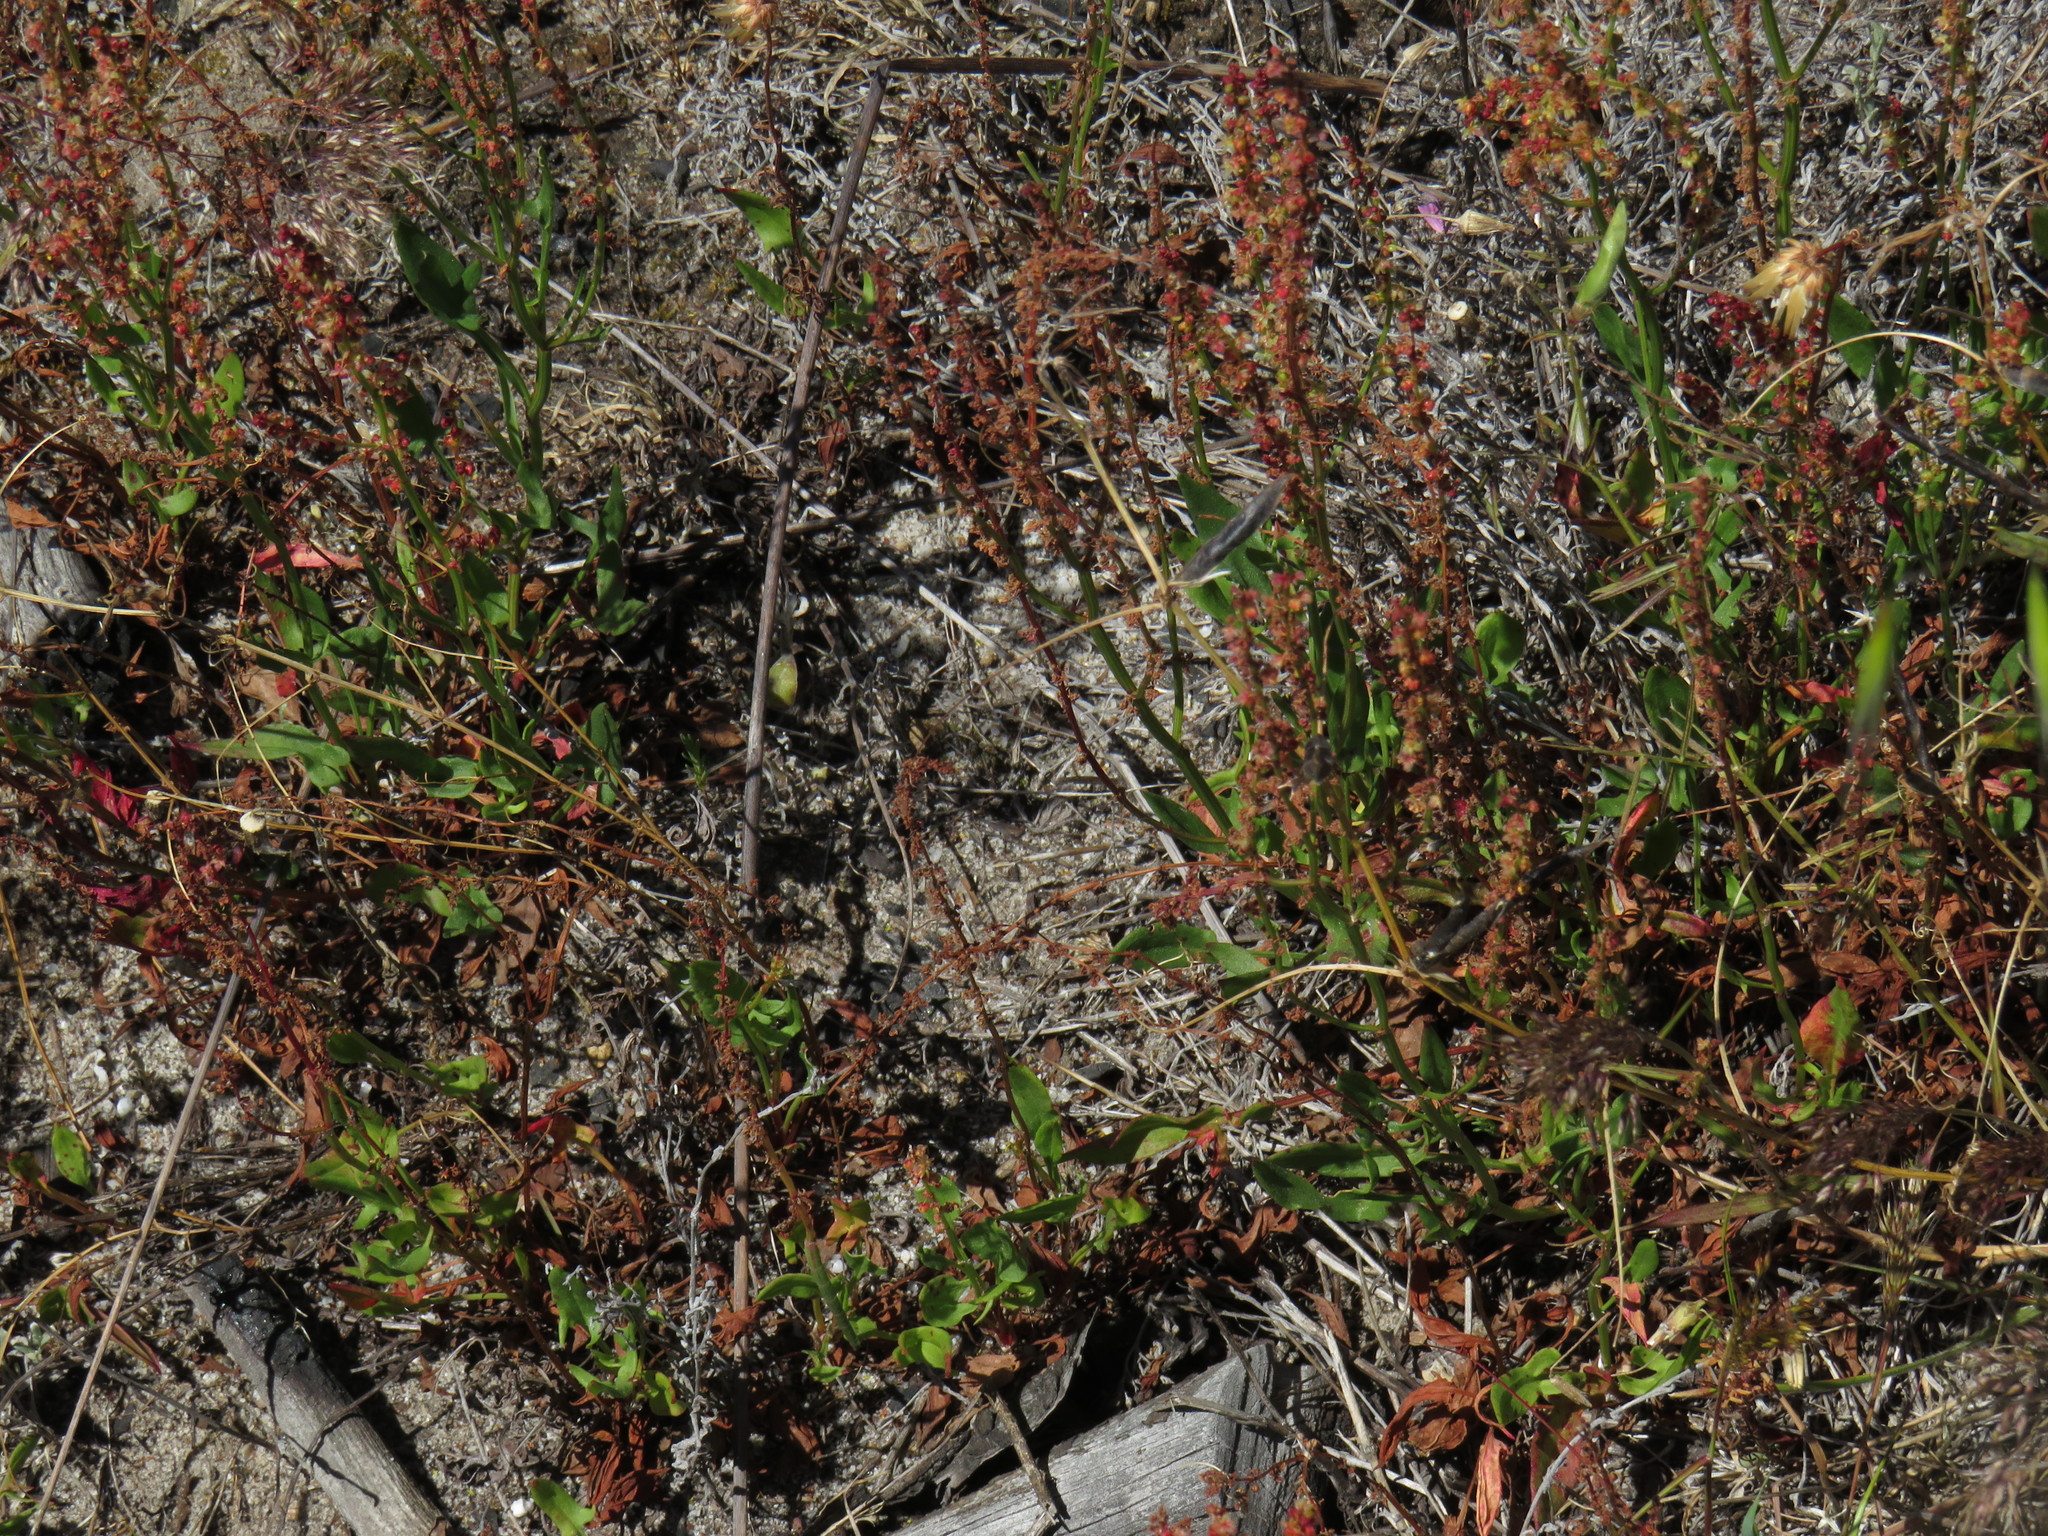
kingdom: Plantae
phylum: Tracheophyta
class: Magnoliopsida
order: Caryophyllales
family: Polygonaceae
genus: Rumex
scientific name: Rumex acetosella
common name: Common sheep sorrel
